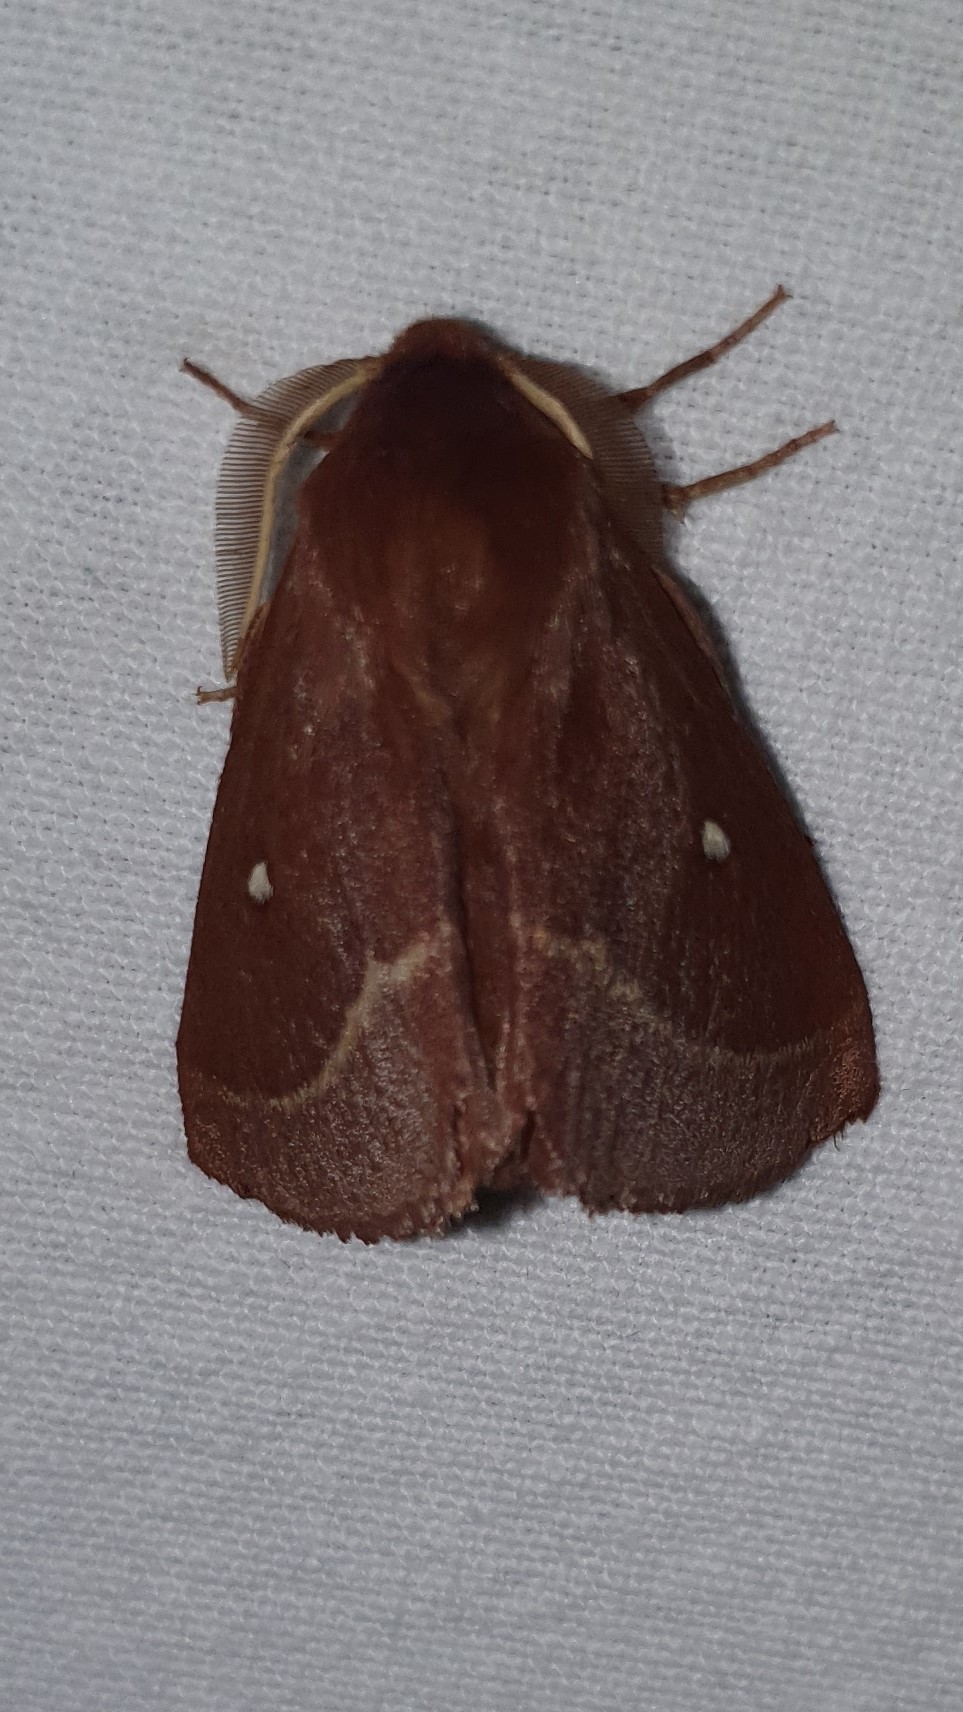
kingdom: Animalia
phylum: Arthropoda
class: Insecta
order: Lepidoptera
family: Lasiocampidae
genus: Lasiocampa
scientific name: Lasiocampa trifolii
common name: Grass eggar
